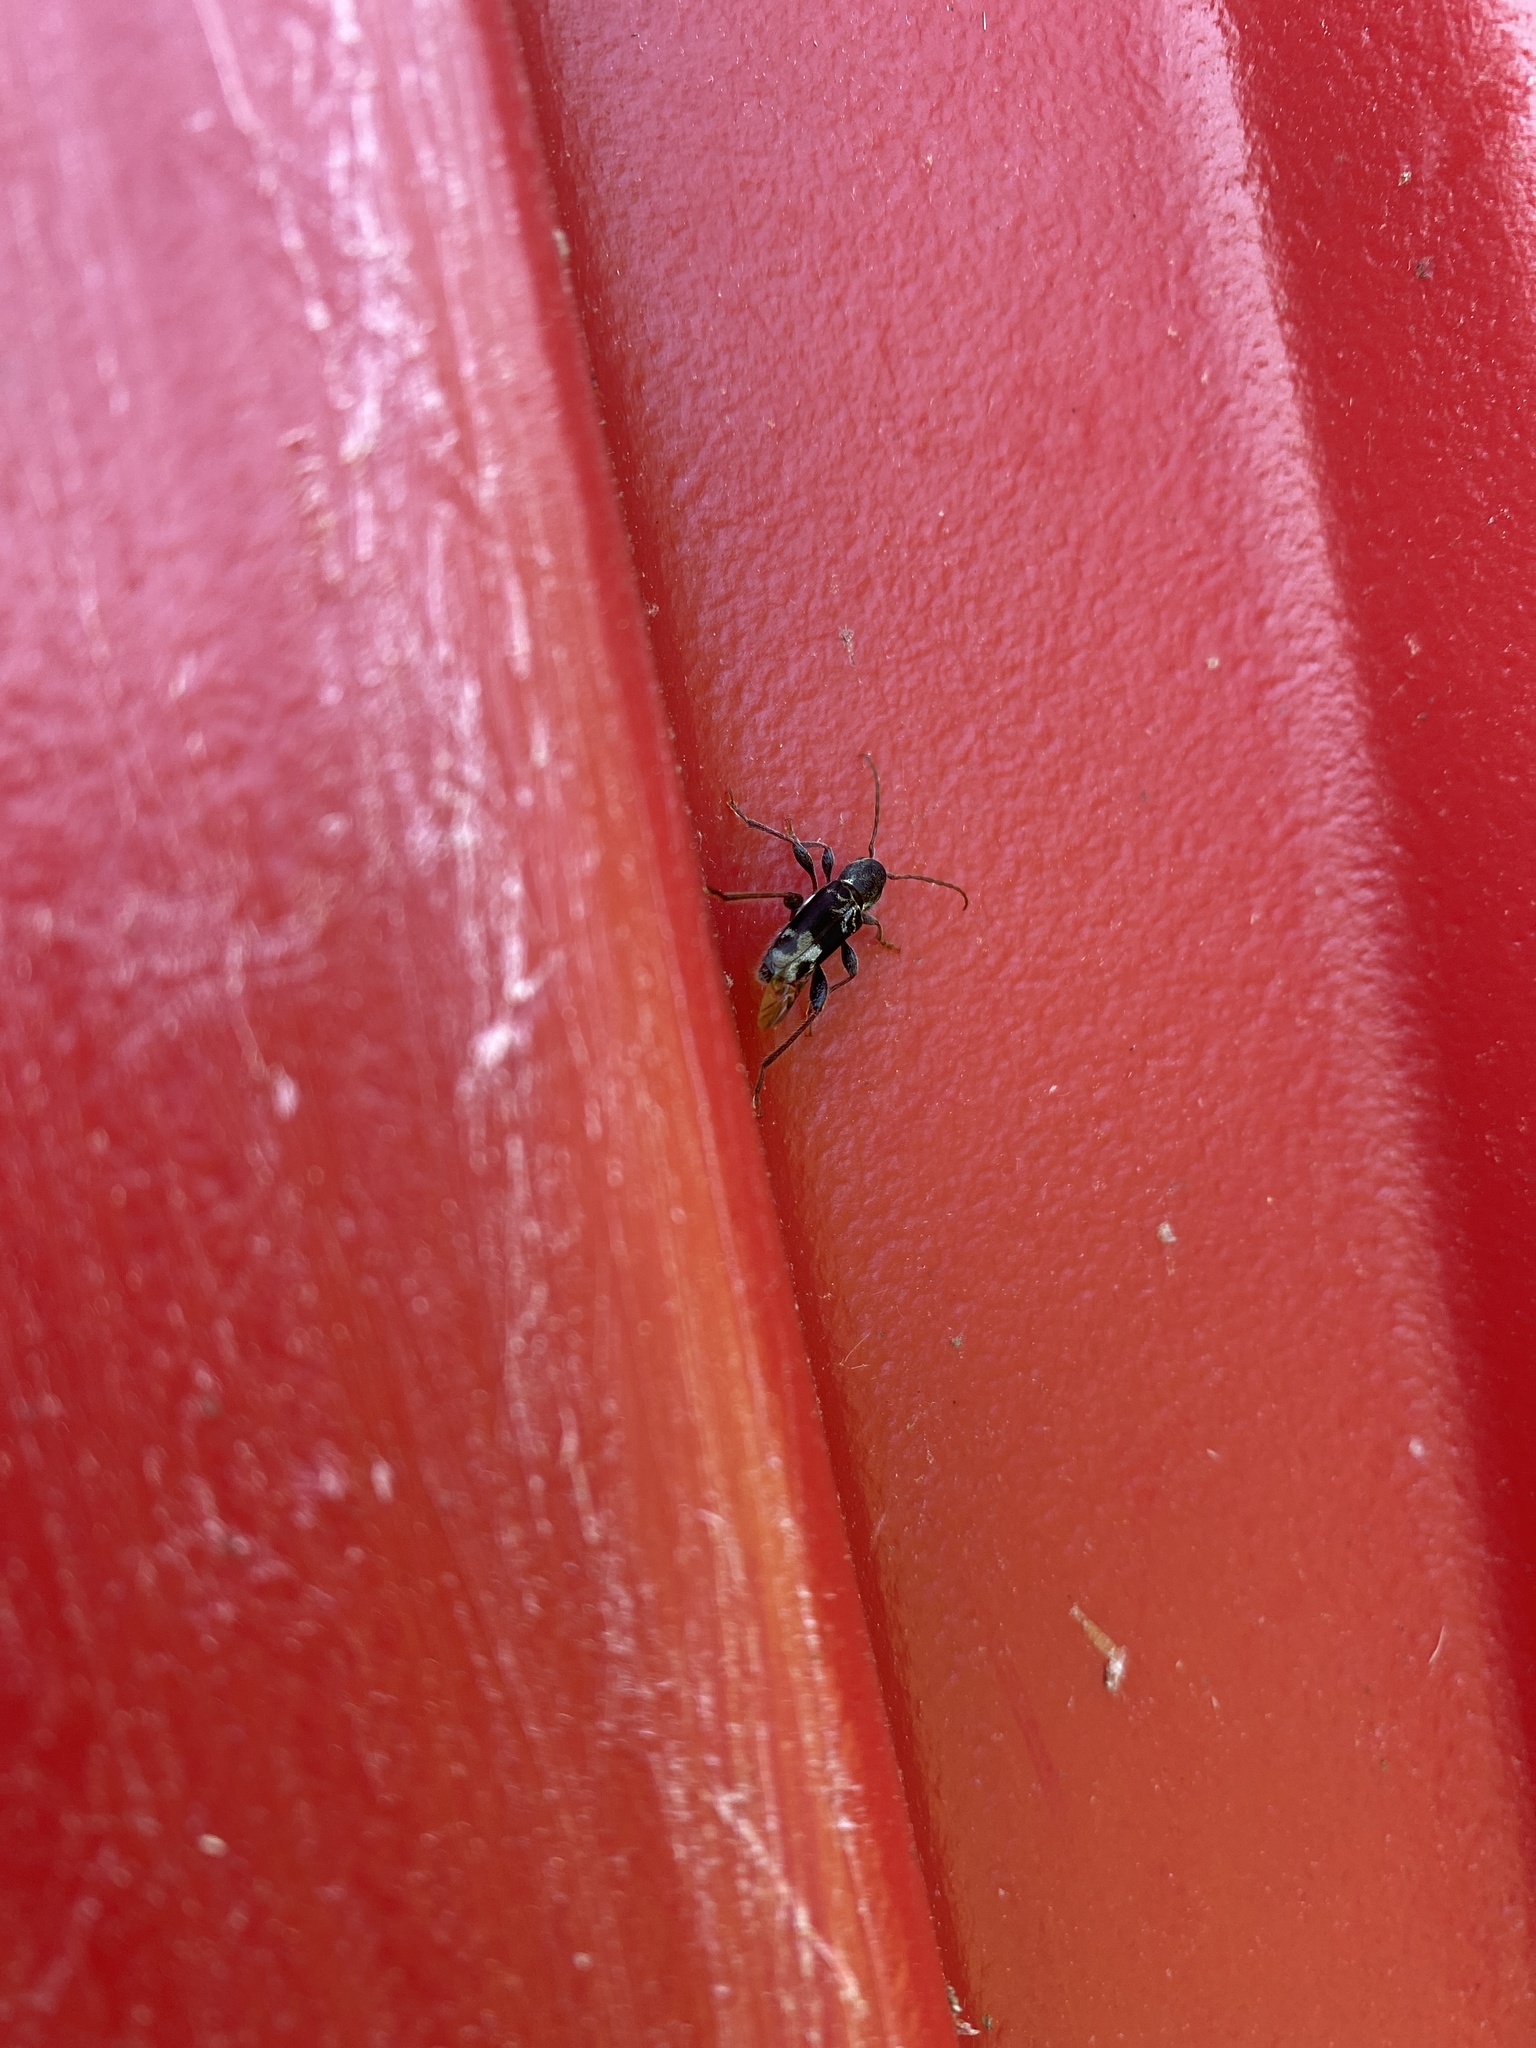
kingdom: Animalia
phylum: Arthropoda
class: Insecta
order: Coleoptera
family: Cerambycidae
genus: Xylotrechus
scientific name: Xylotrechus colonus
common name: Long-horned beetle
